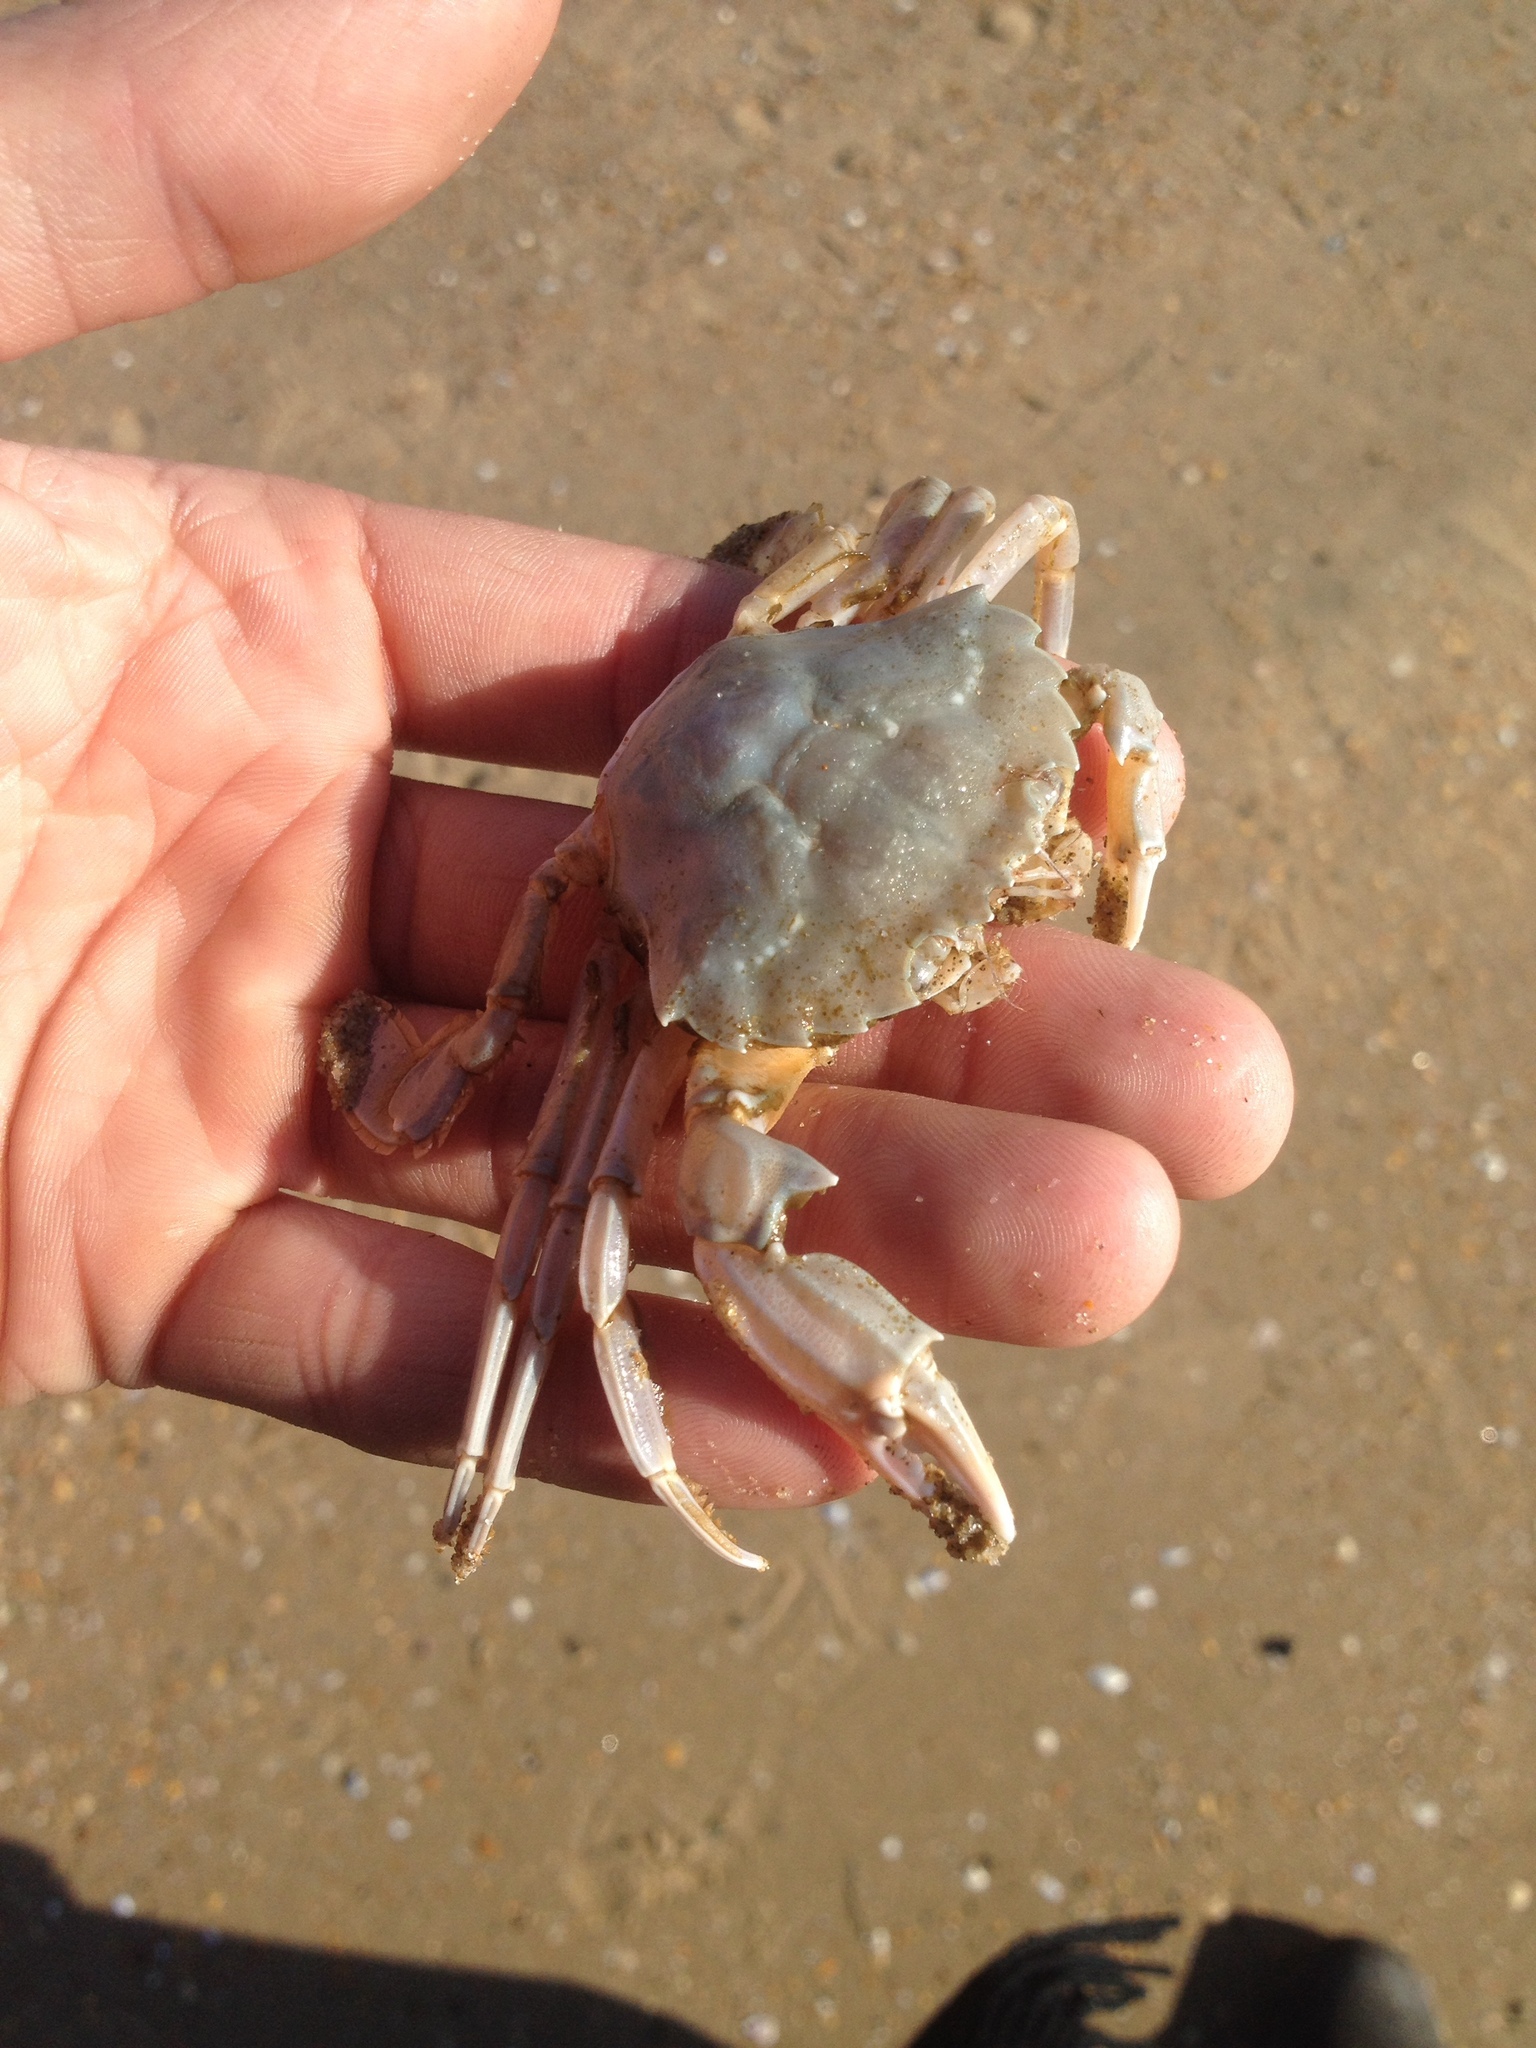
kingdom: Animalia
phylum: Arthropoda
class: Malacostraca
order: Decapoda
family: Polybiidae
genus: Liocarcinus
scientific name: Liocarcinus vernalis
